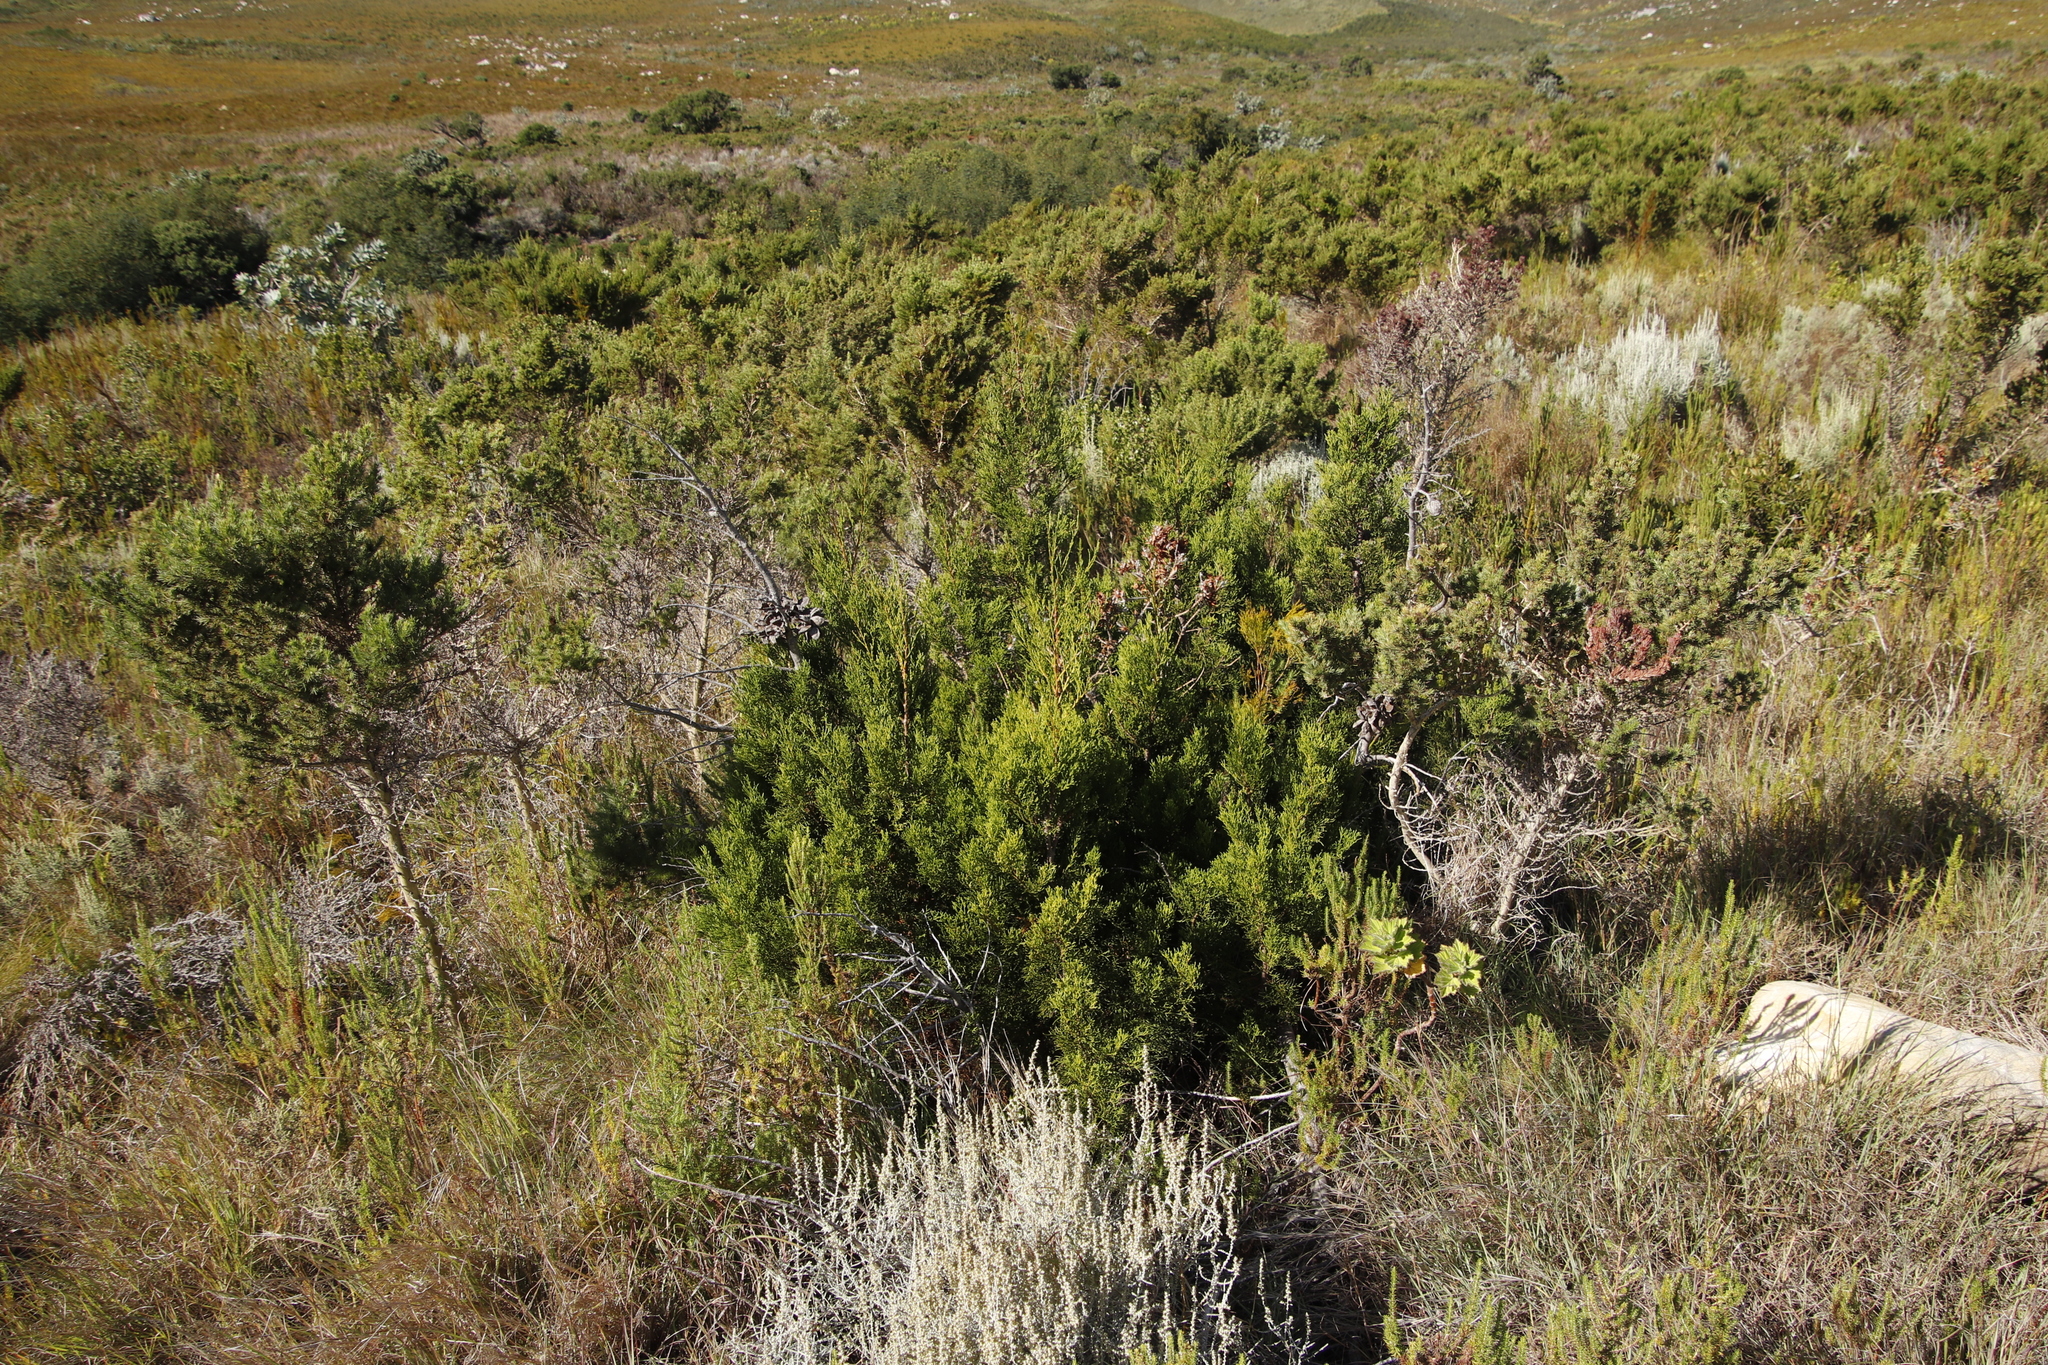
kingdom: Plantae
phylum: Tracheophyta
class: Pinopsida
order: Pinales
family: Cupressaceae
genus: Widdringtonia
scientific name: Widdringtonia nodiflora
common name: Cape cypress
